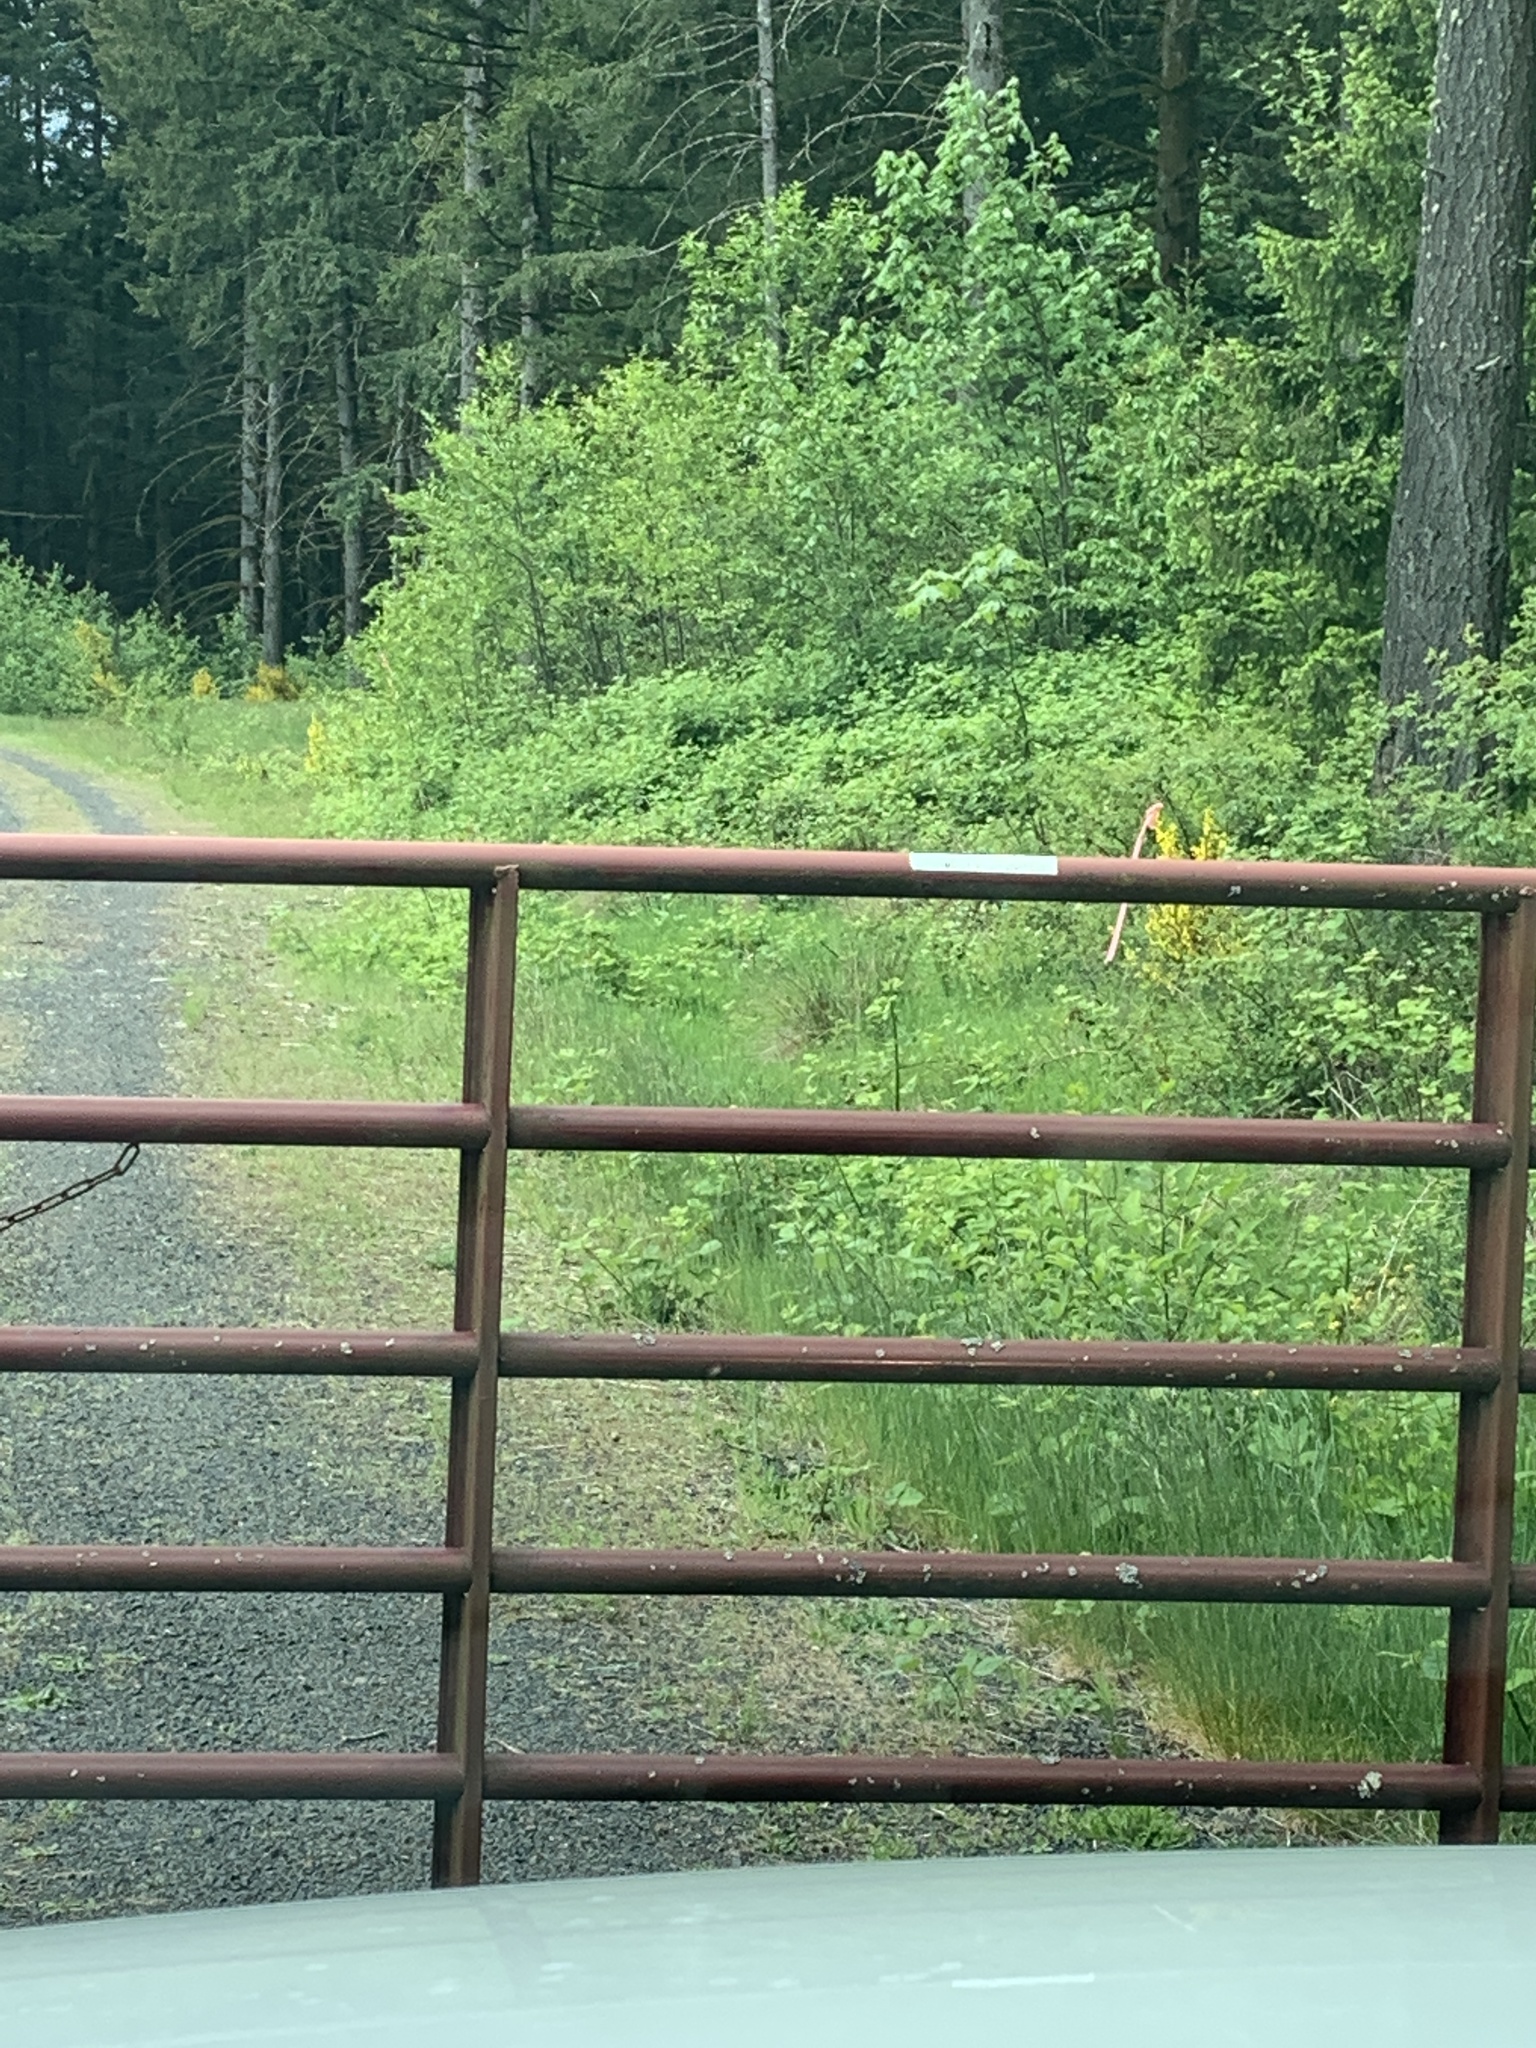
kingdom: Plantae
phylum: Tracheophyta
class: Magnoliopsida
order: Fabales
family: Fabaceae
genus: Cytisus
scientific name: Cytisus scoparius
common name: Scotch broom
